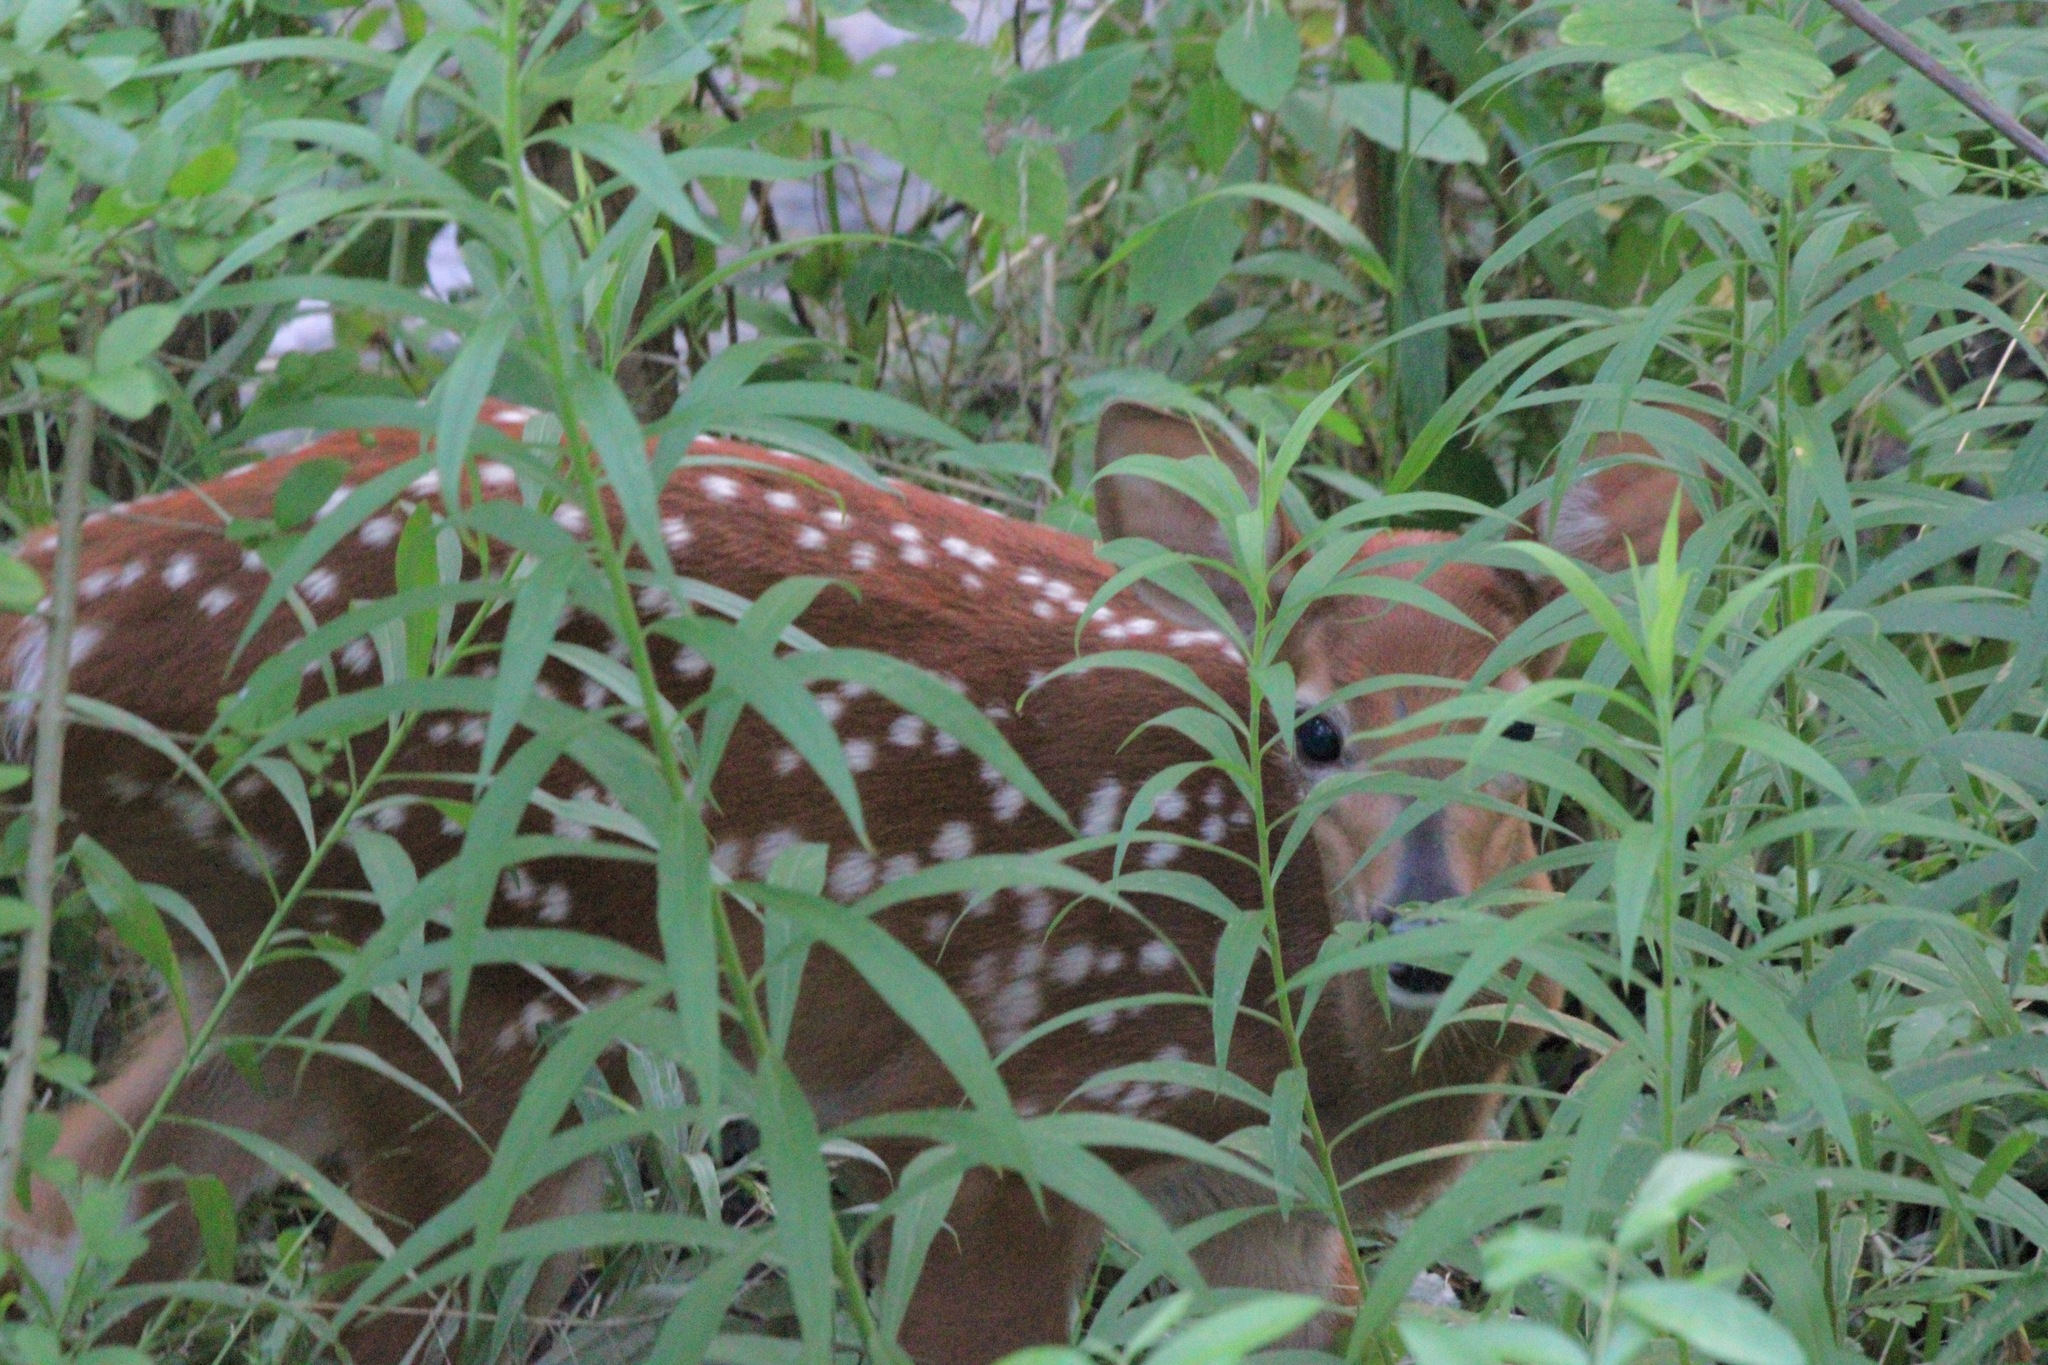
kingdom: Animalia
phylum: Chordata
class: Mammalia
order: Artiodactyla
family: Cervidae
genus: Odocoileus
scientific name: Odocoileus virginianus
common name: White-tailed deer
